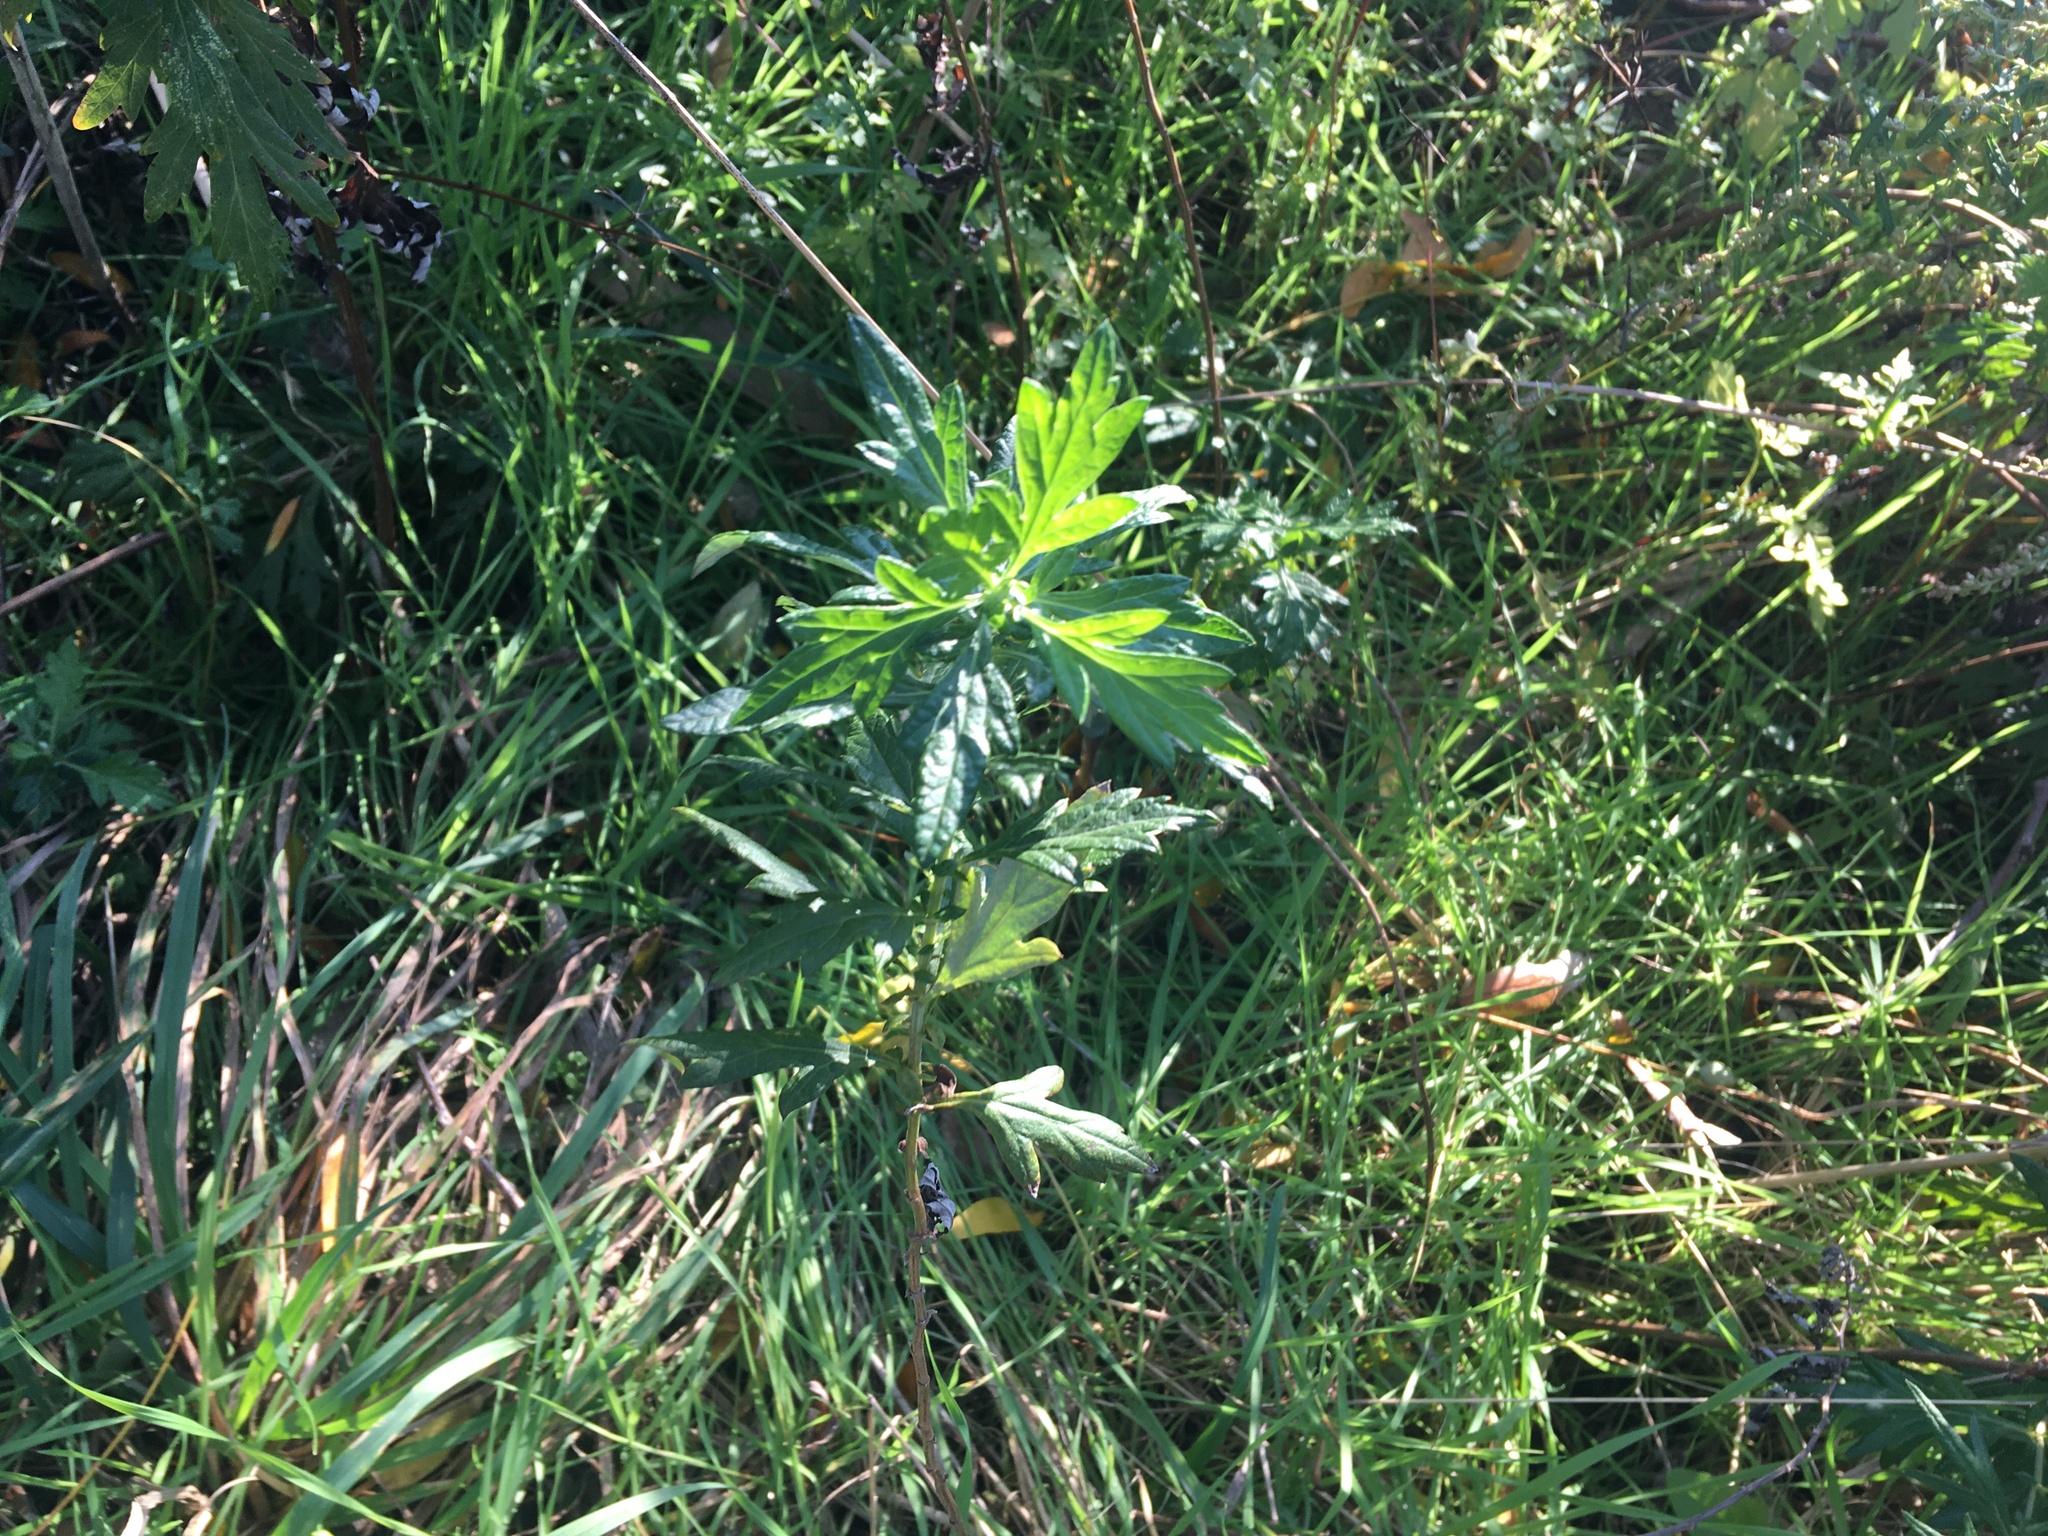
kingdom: Plantae
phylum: Tracheophyta
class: Magnoliopsida
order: Asterales
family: Asteraceae
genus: Artemisia
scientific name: Artemisia vulgaris
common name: Mugwort
